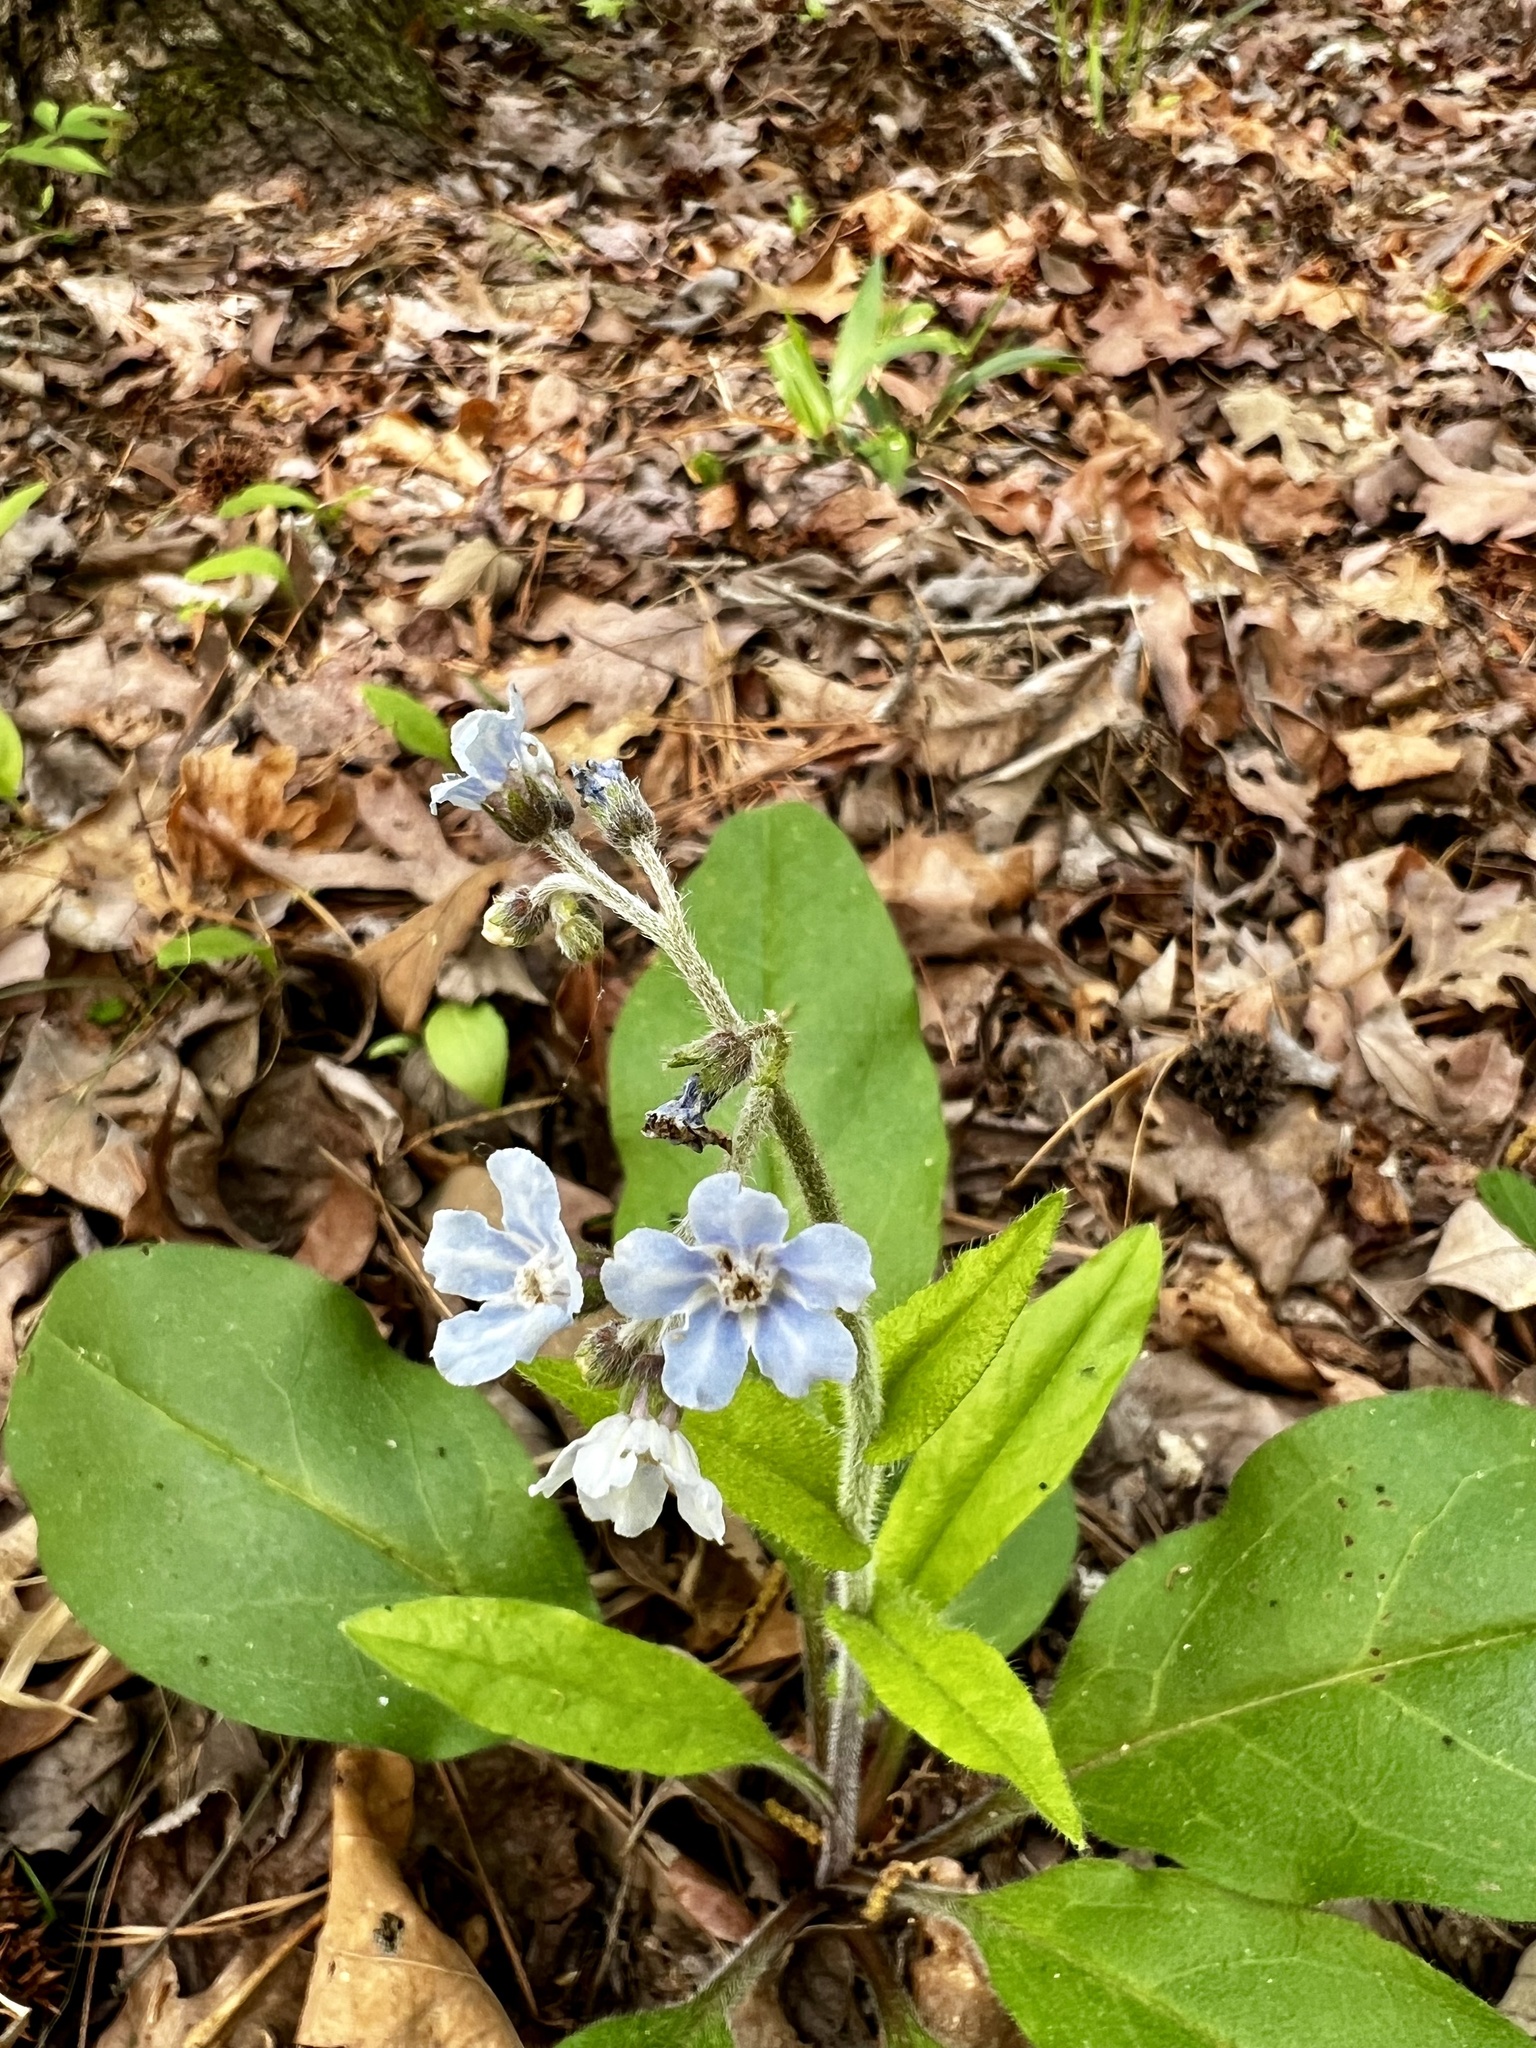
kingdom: Plantae
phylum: Tracheophyta
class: Magnoliopsida
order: Boraginales
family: Boraginaceae
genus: Andersonglossum
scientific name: Andersonglossum virginianum
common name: Wild comfrey
